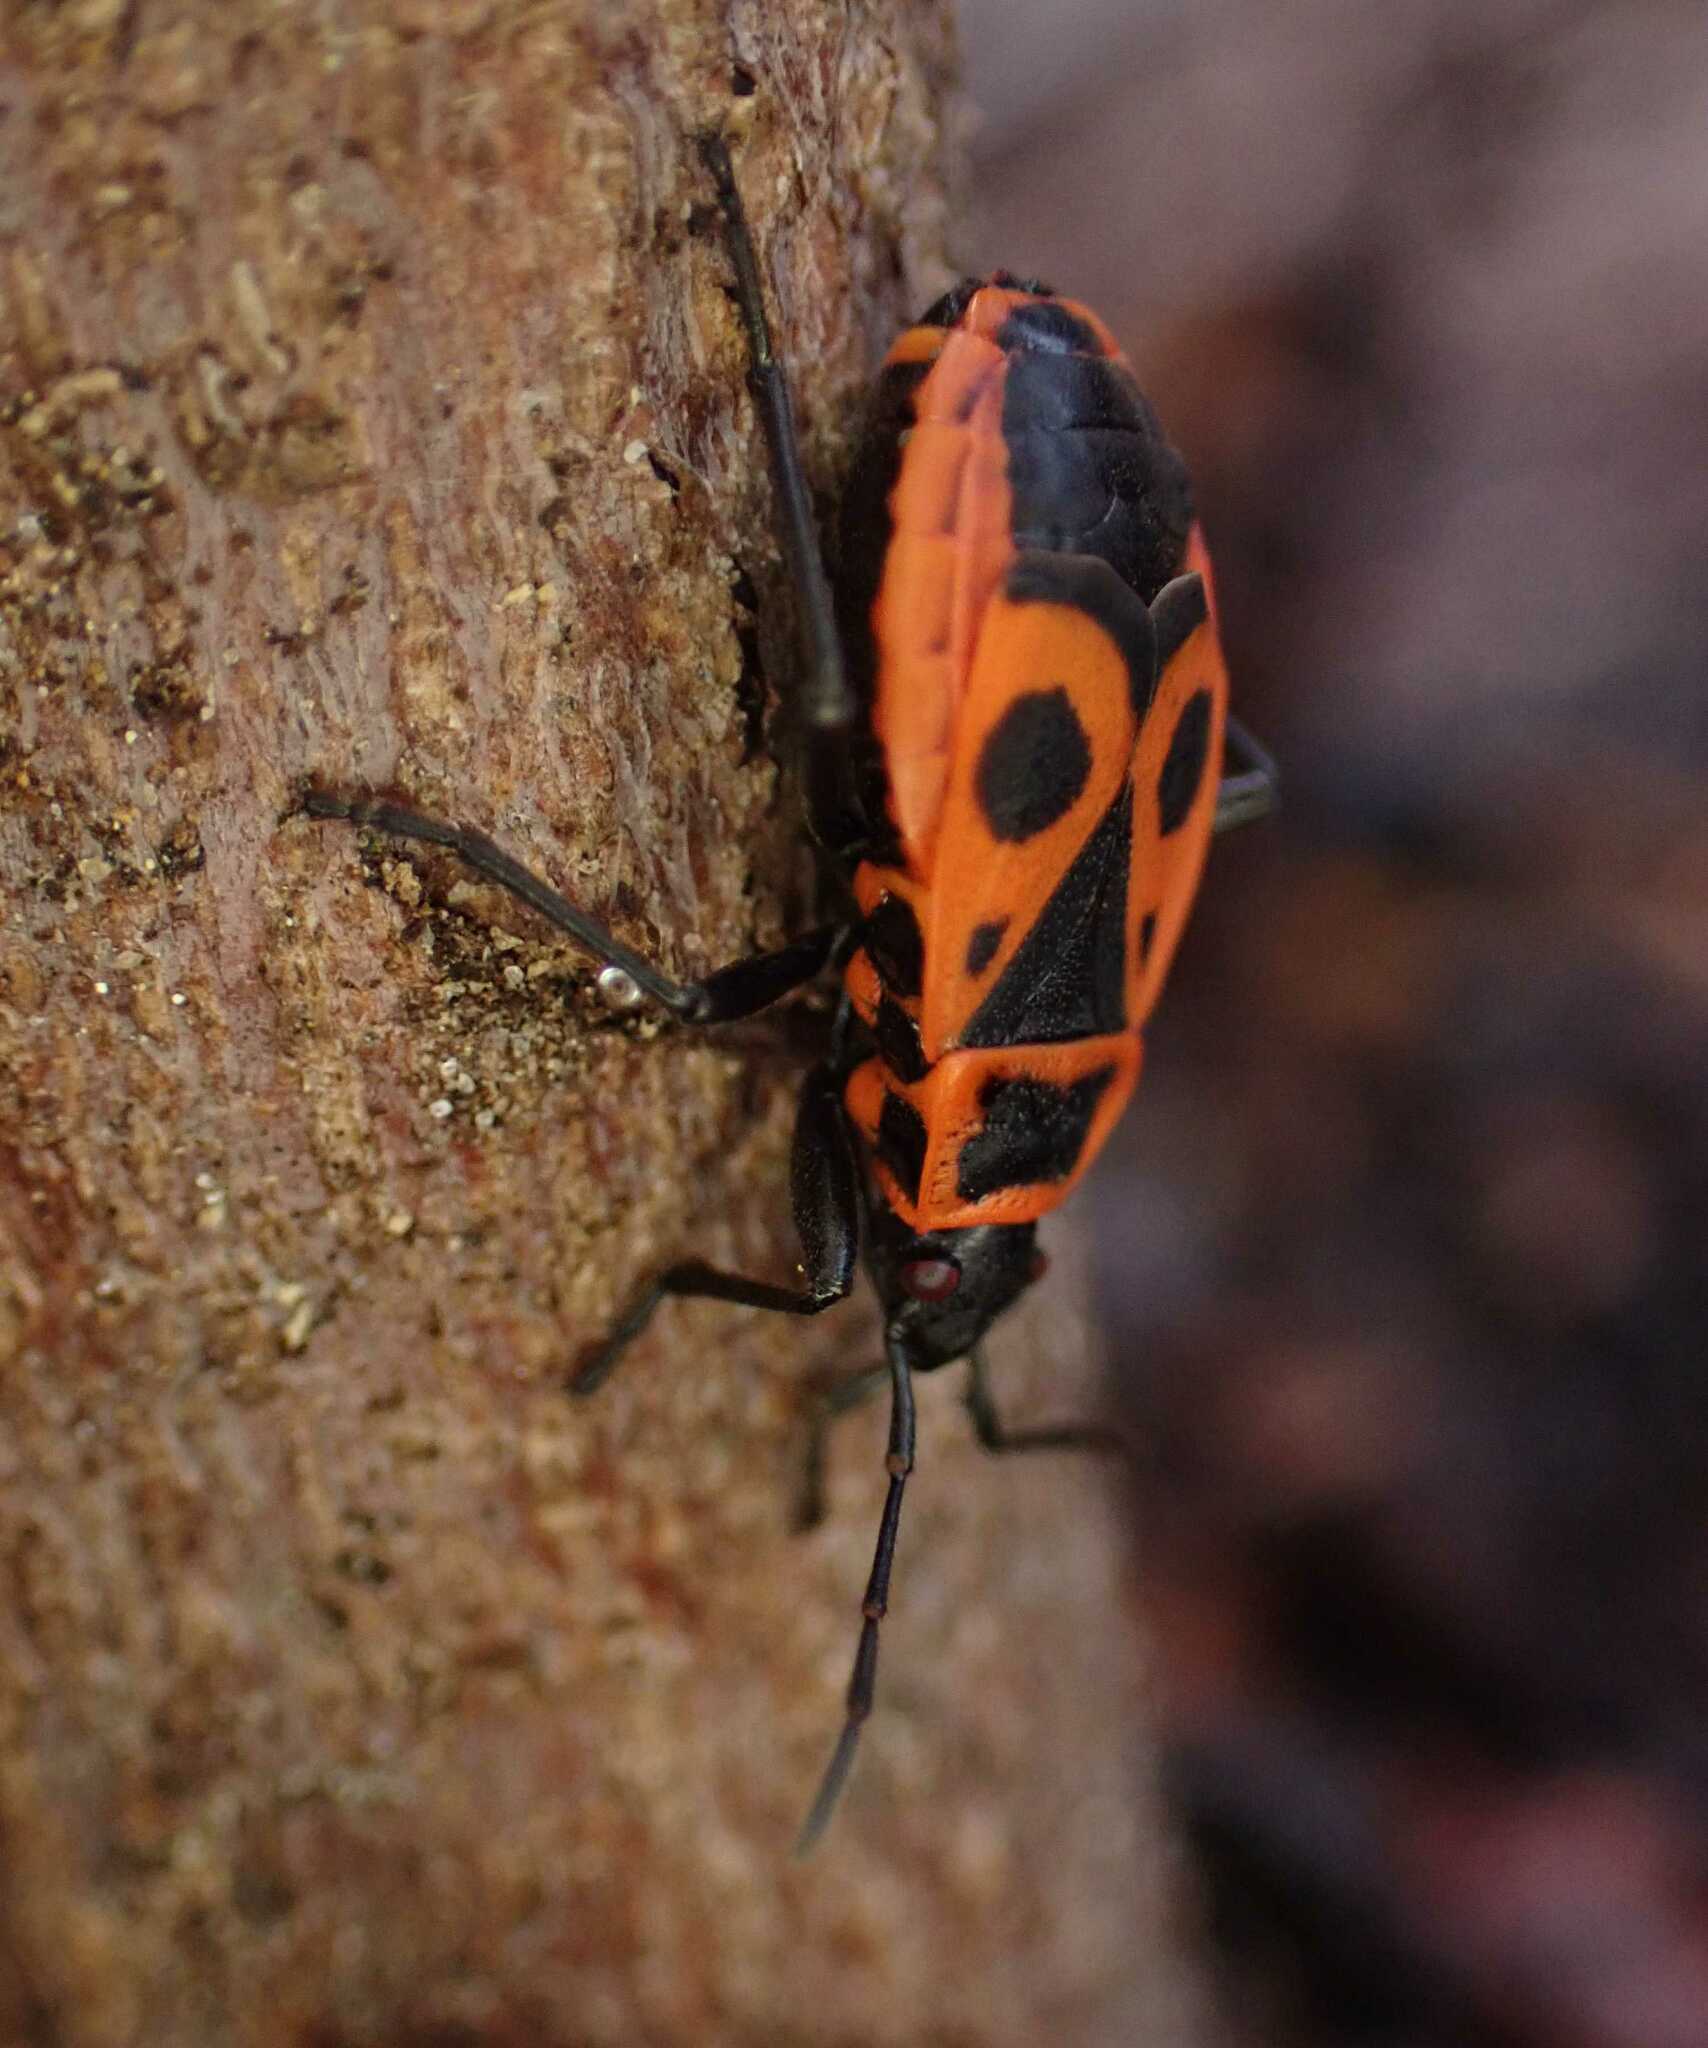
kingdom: Animalia
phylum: Arthropoda
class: Insecta
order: Hemiptera
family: Pyrrhocoridae
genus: Pyrrhocoris
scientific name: Pyrrhocoris apterus
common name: Firebug
